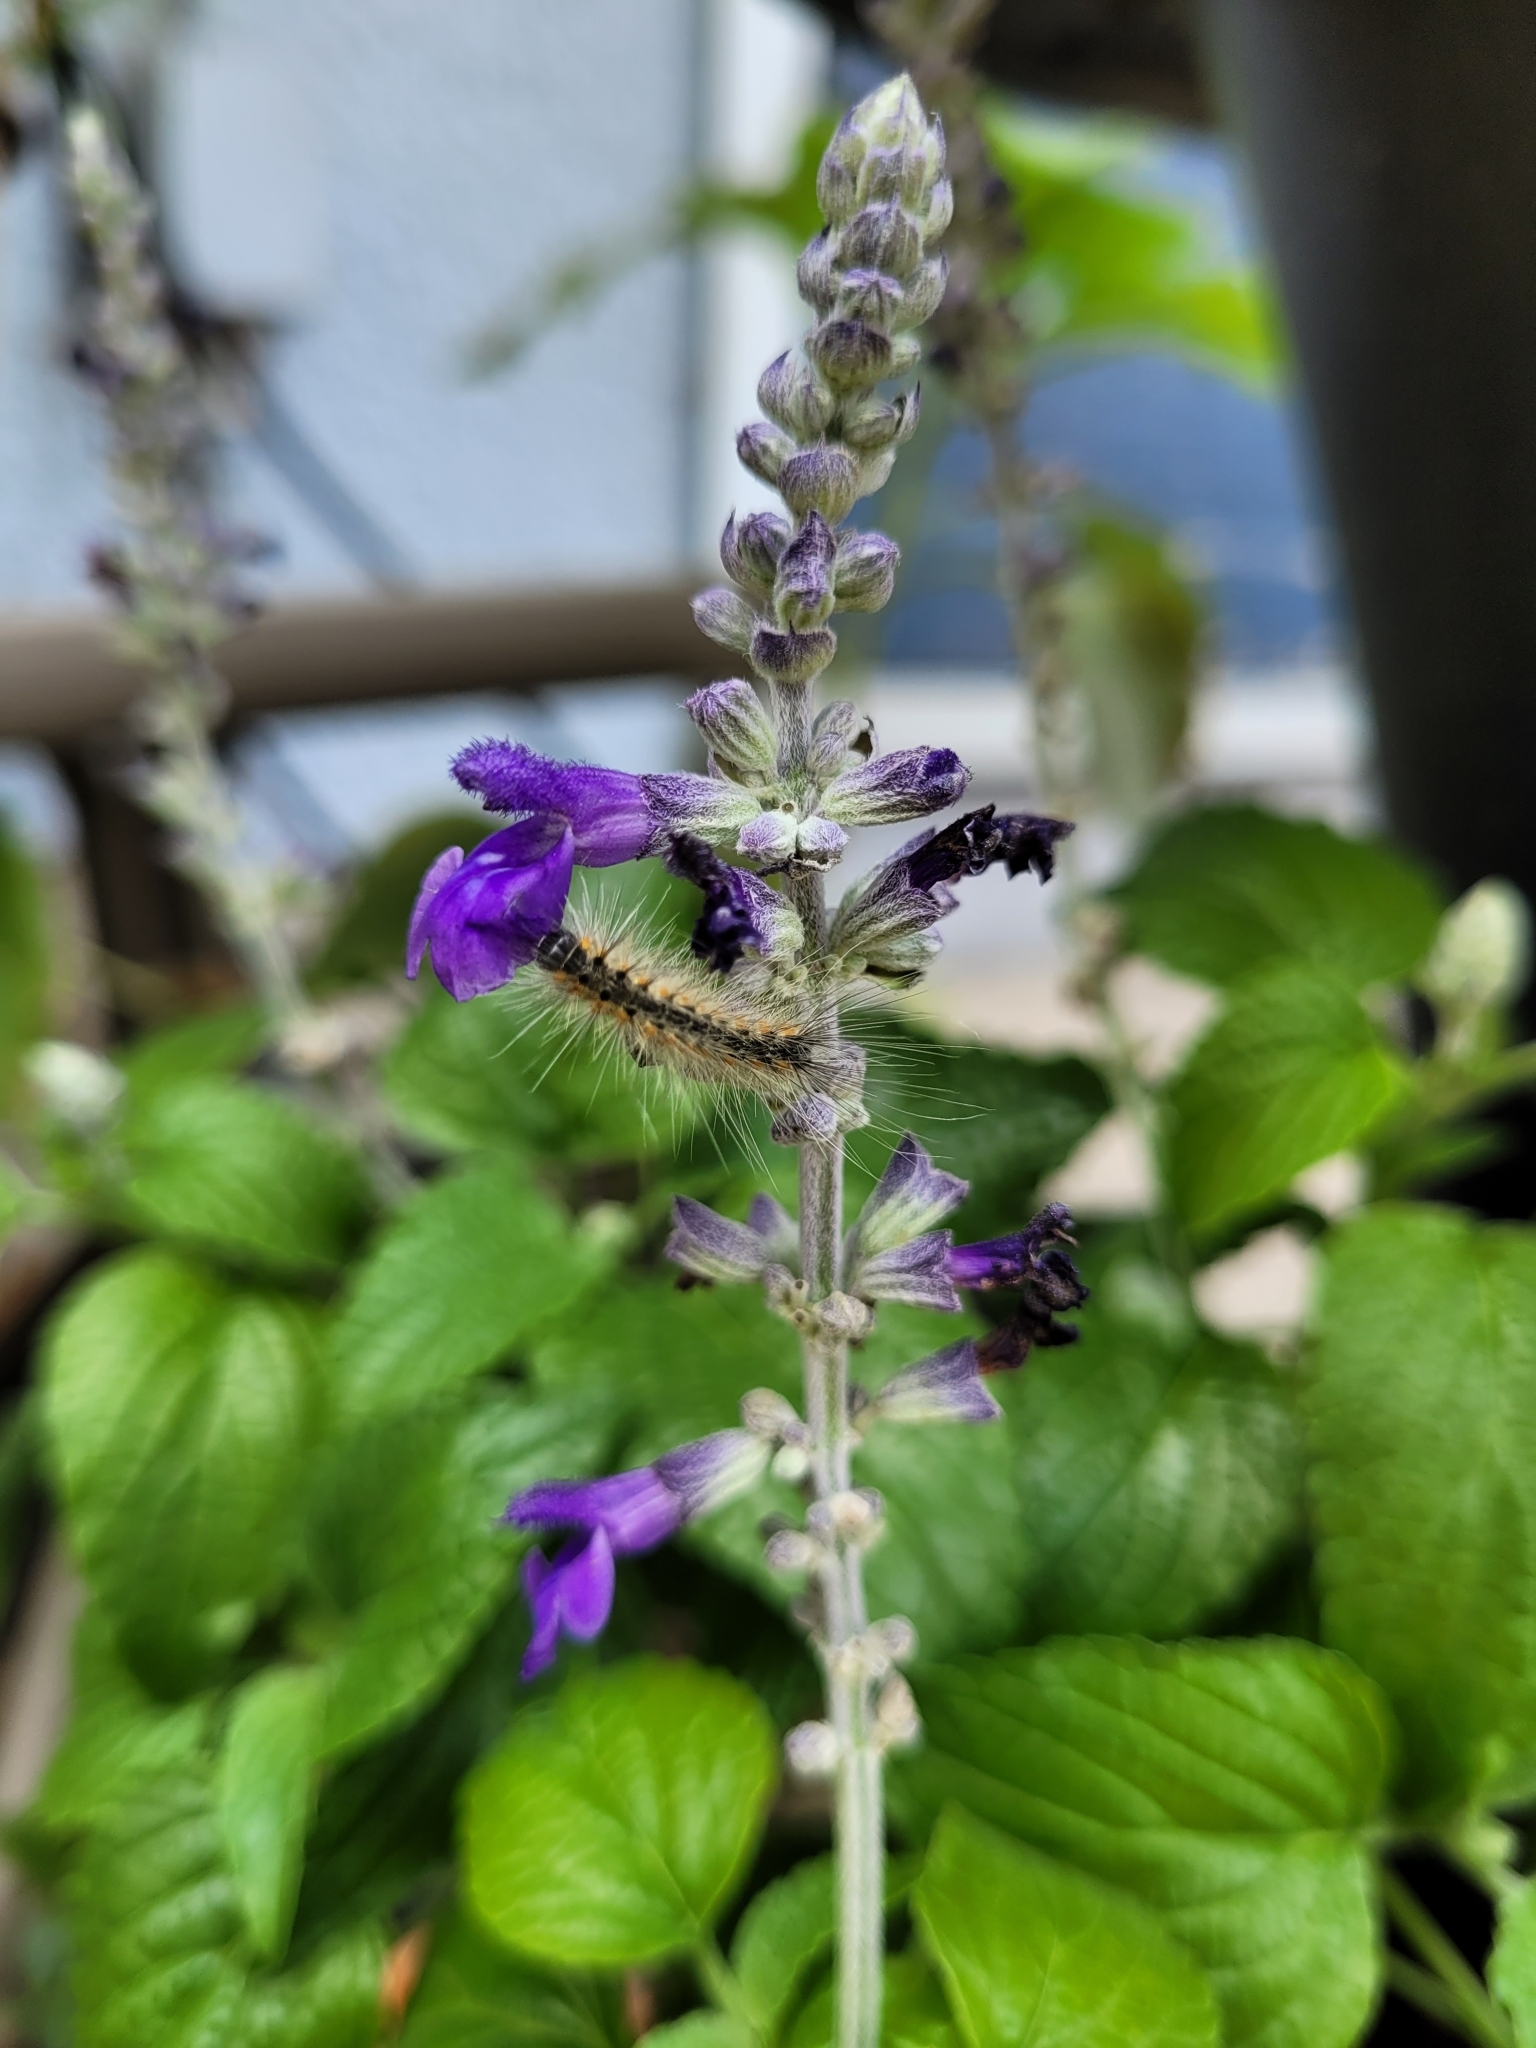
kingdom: Animalia
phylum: Arthropoda
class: Insecta
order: Lepidoptera
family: Erebidae
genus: Hyphantria
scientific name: Hyphantria cunea
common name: American white moth
